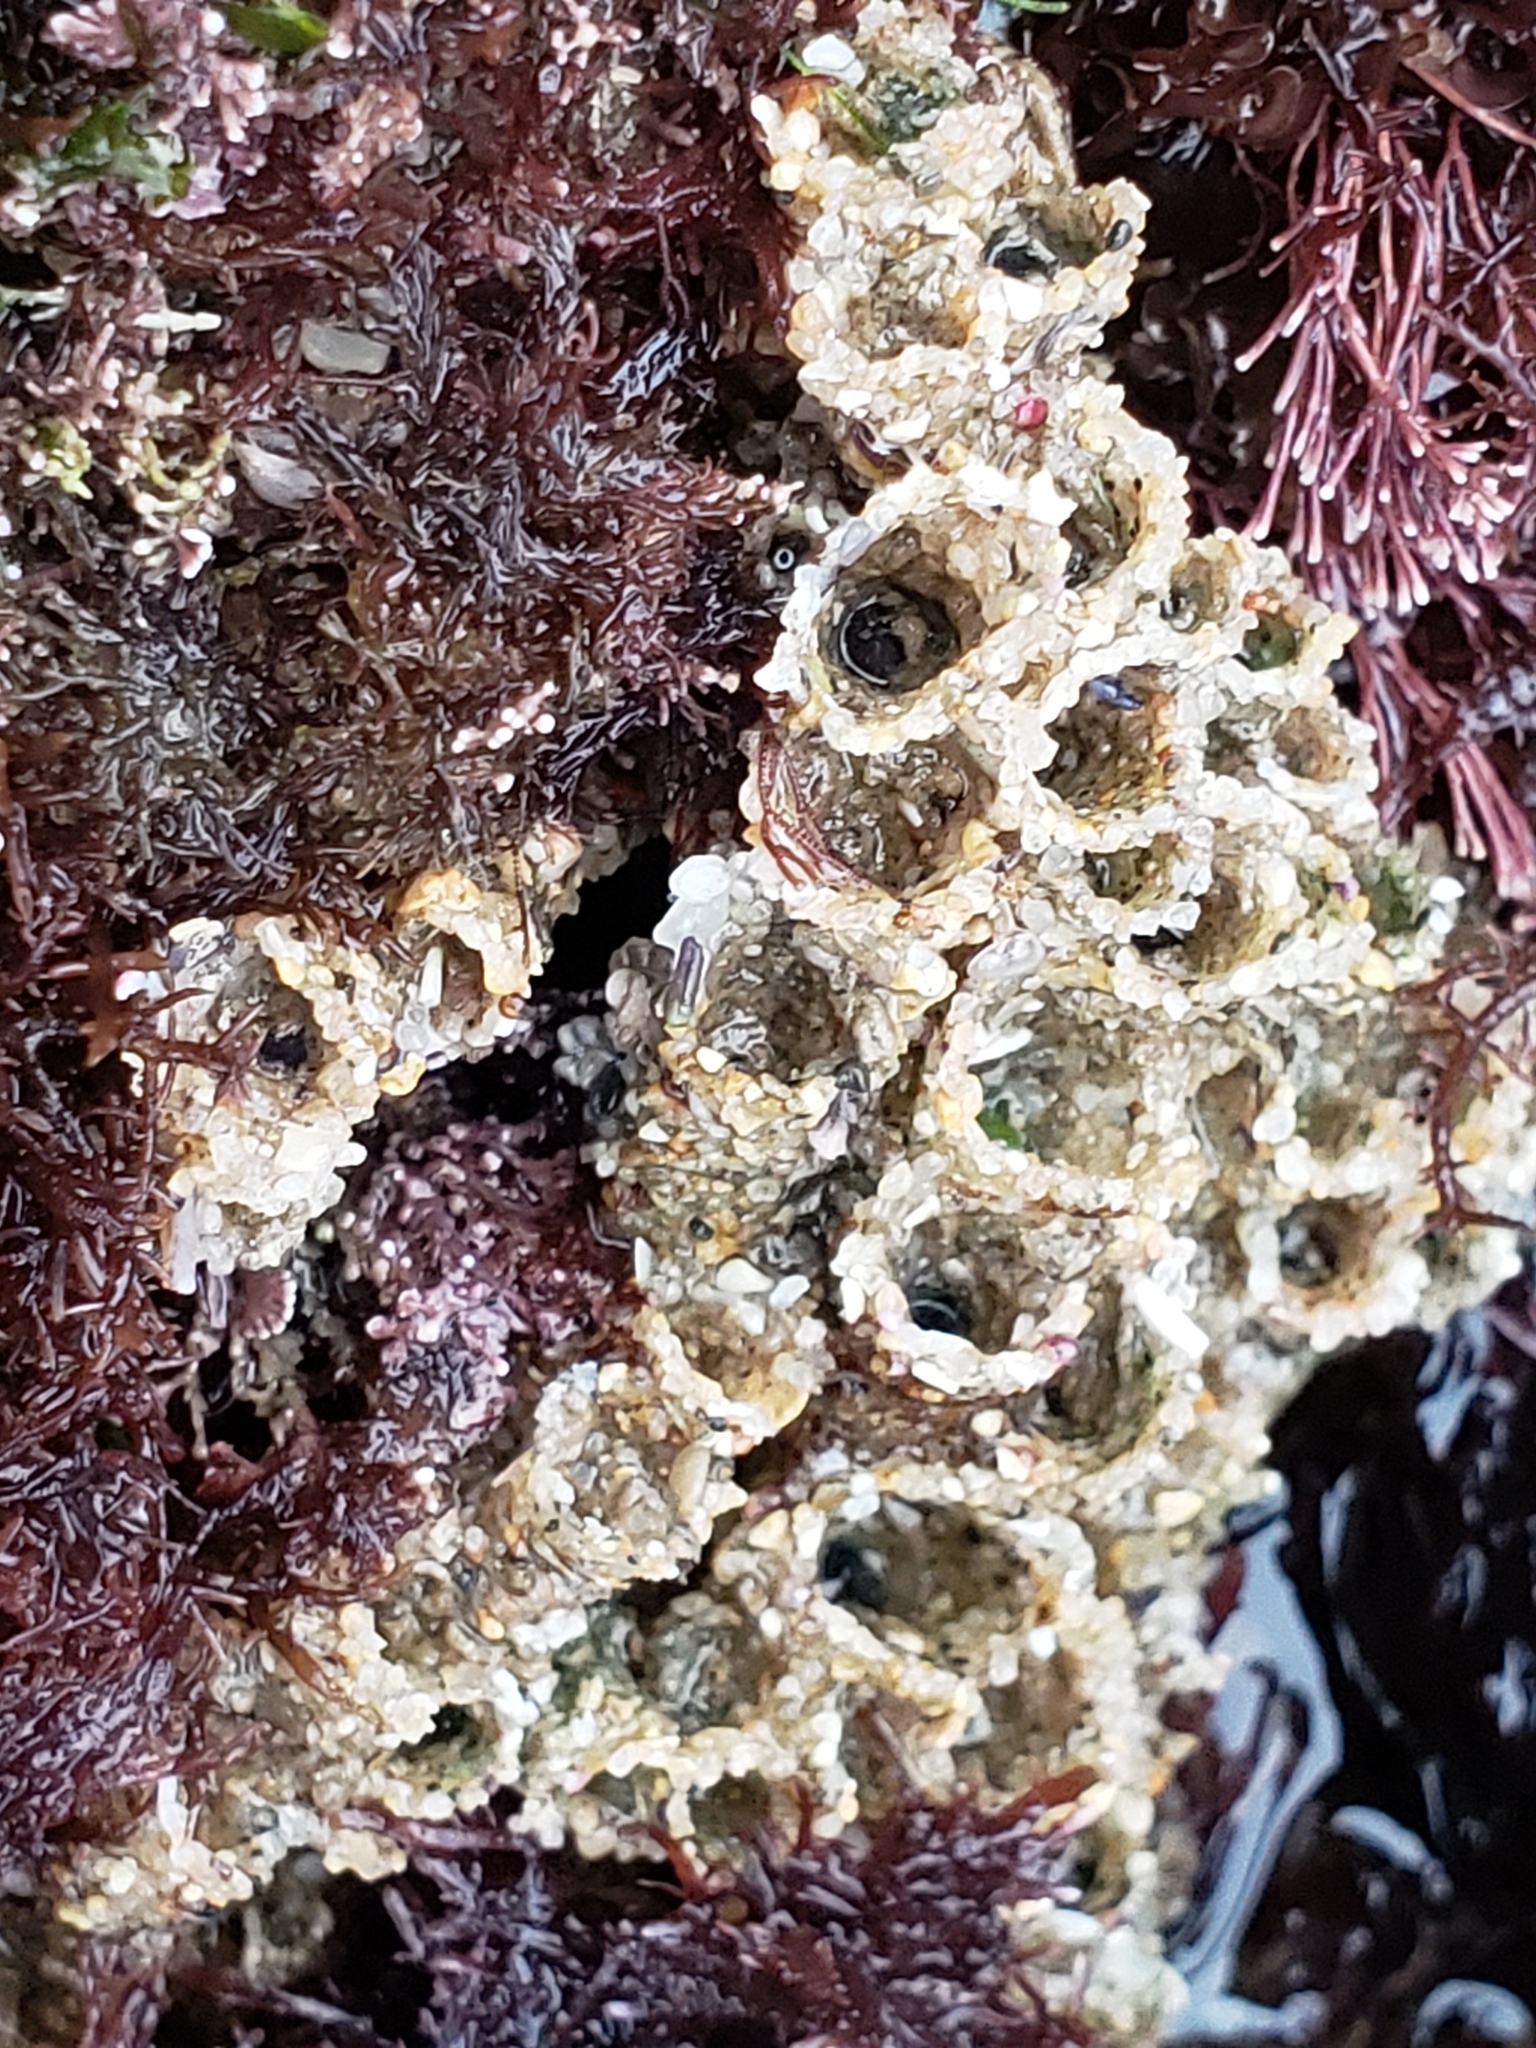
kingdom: Animalia
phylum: Annelida
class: Polychaeta
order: Sabellida
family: Sabellariidae
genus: Phragmatopoma
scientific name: Phragmatopoma californica
